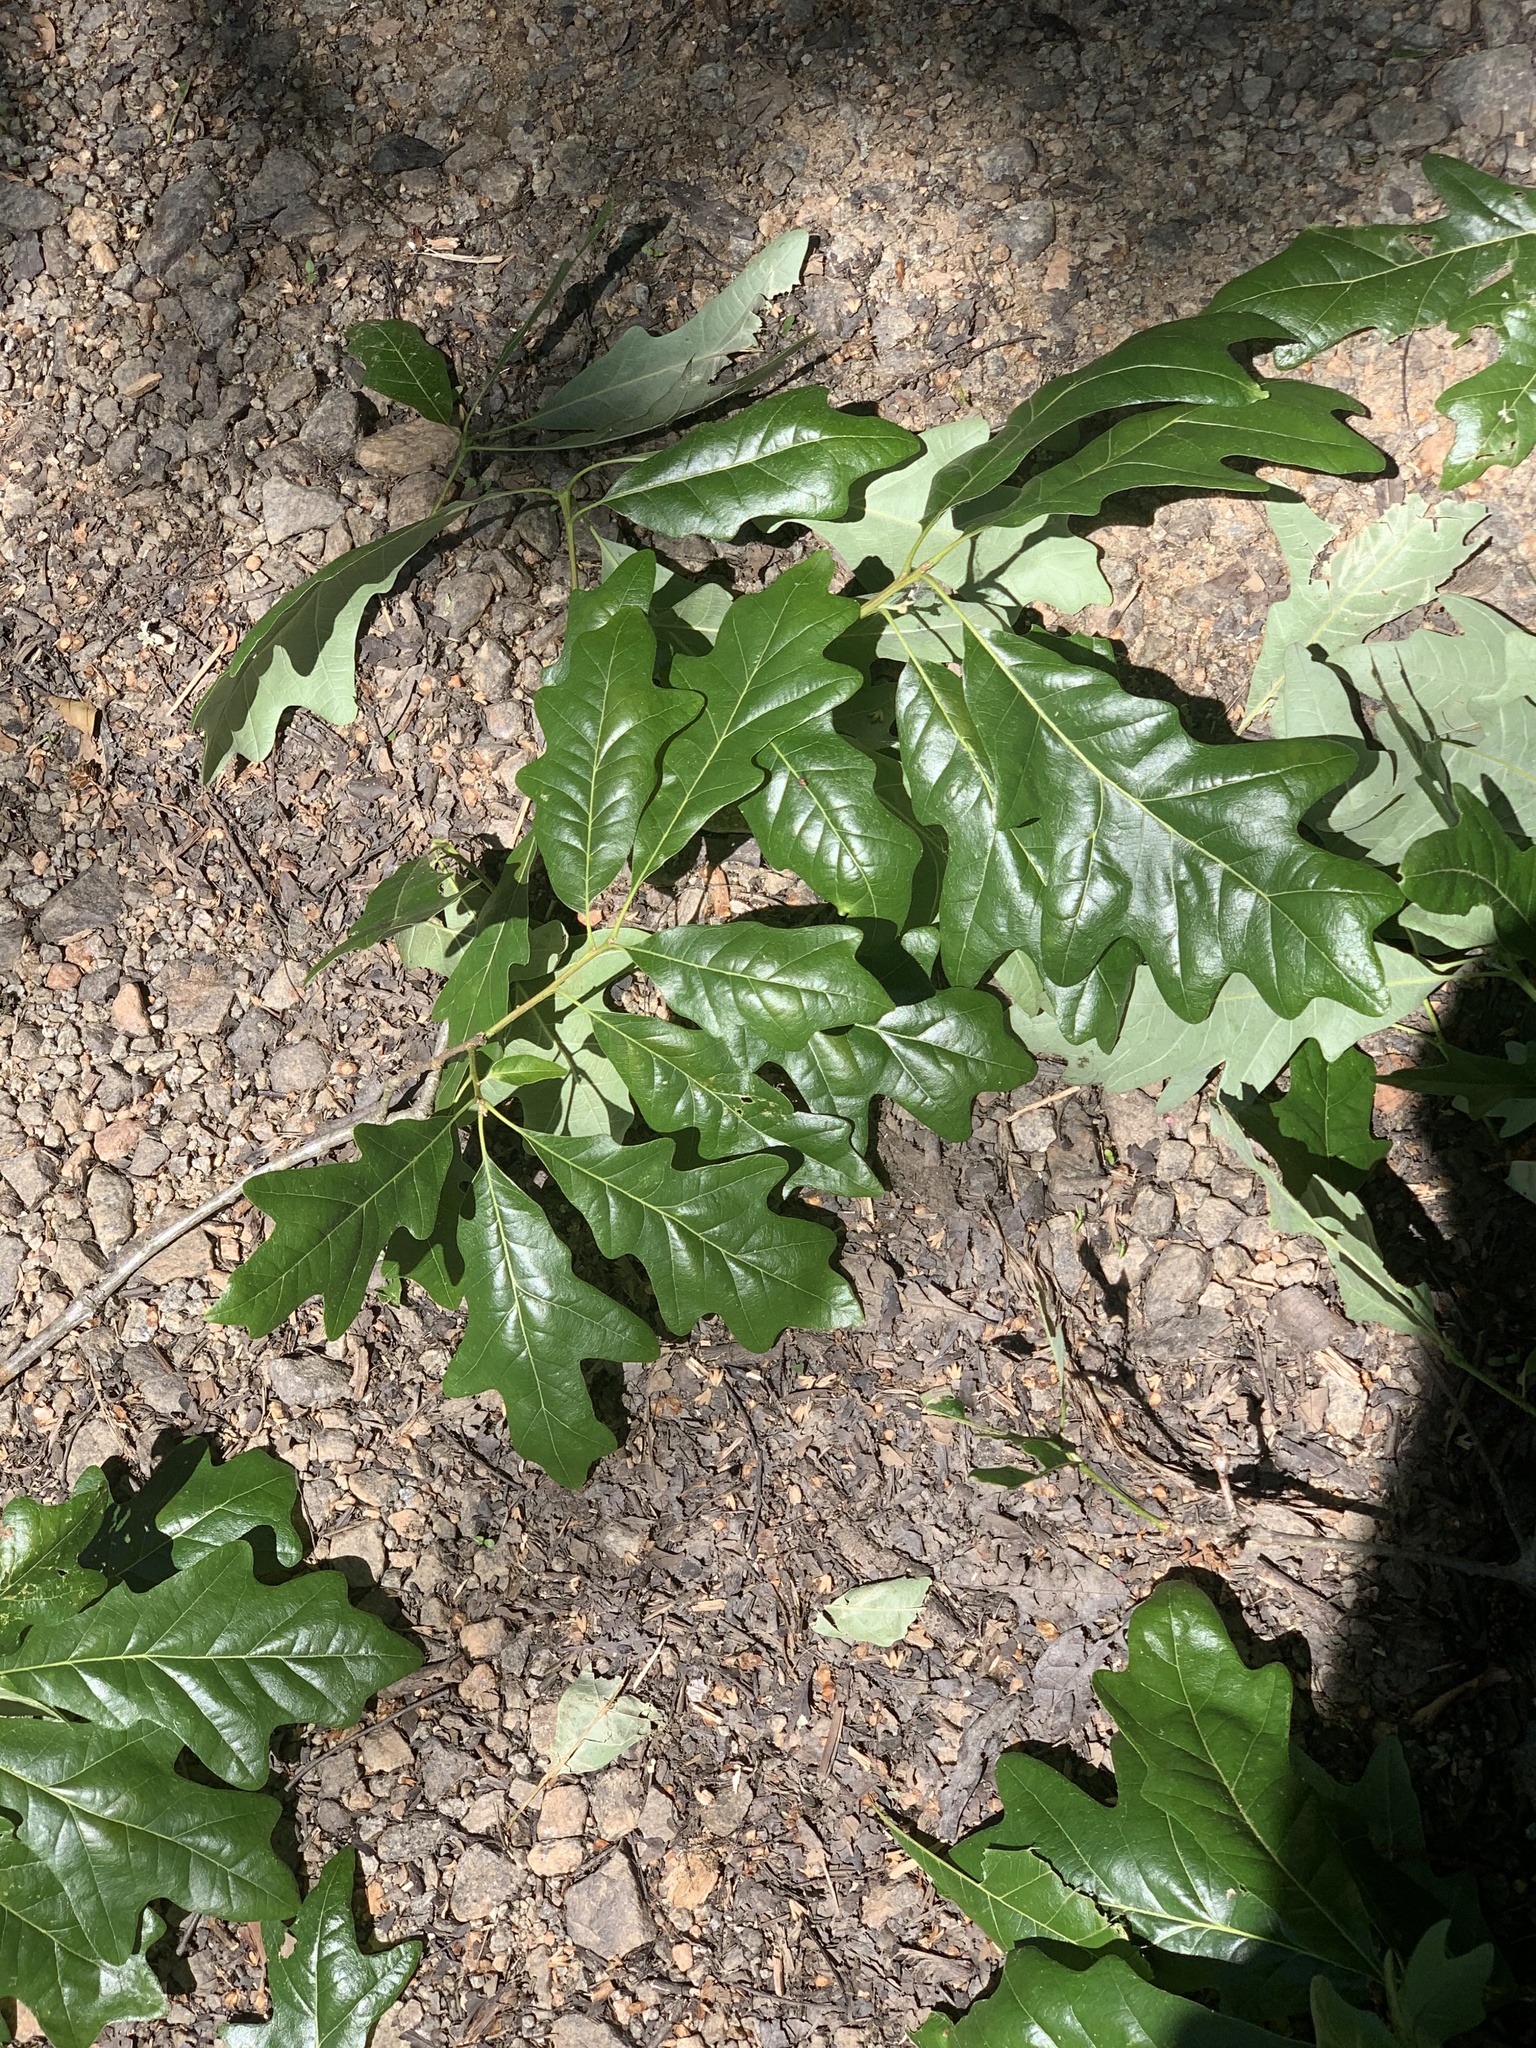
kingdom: Plantae
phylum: Tracheophyta
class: Magnoliopsida
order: Fagales
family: Fagaceae
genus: Quercus
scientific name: Quercus lyrata
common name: Overcup oak
